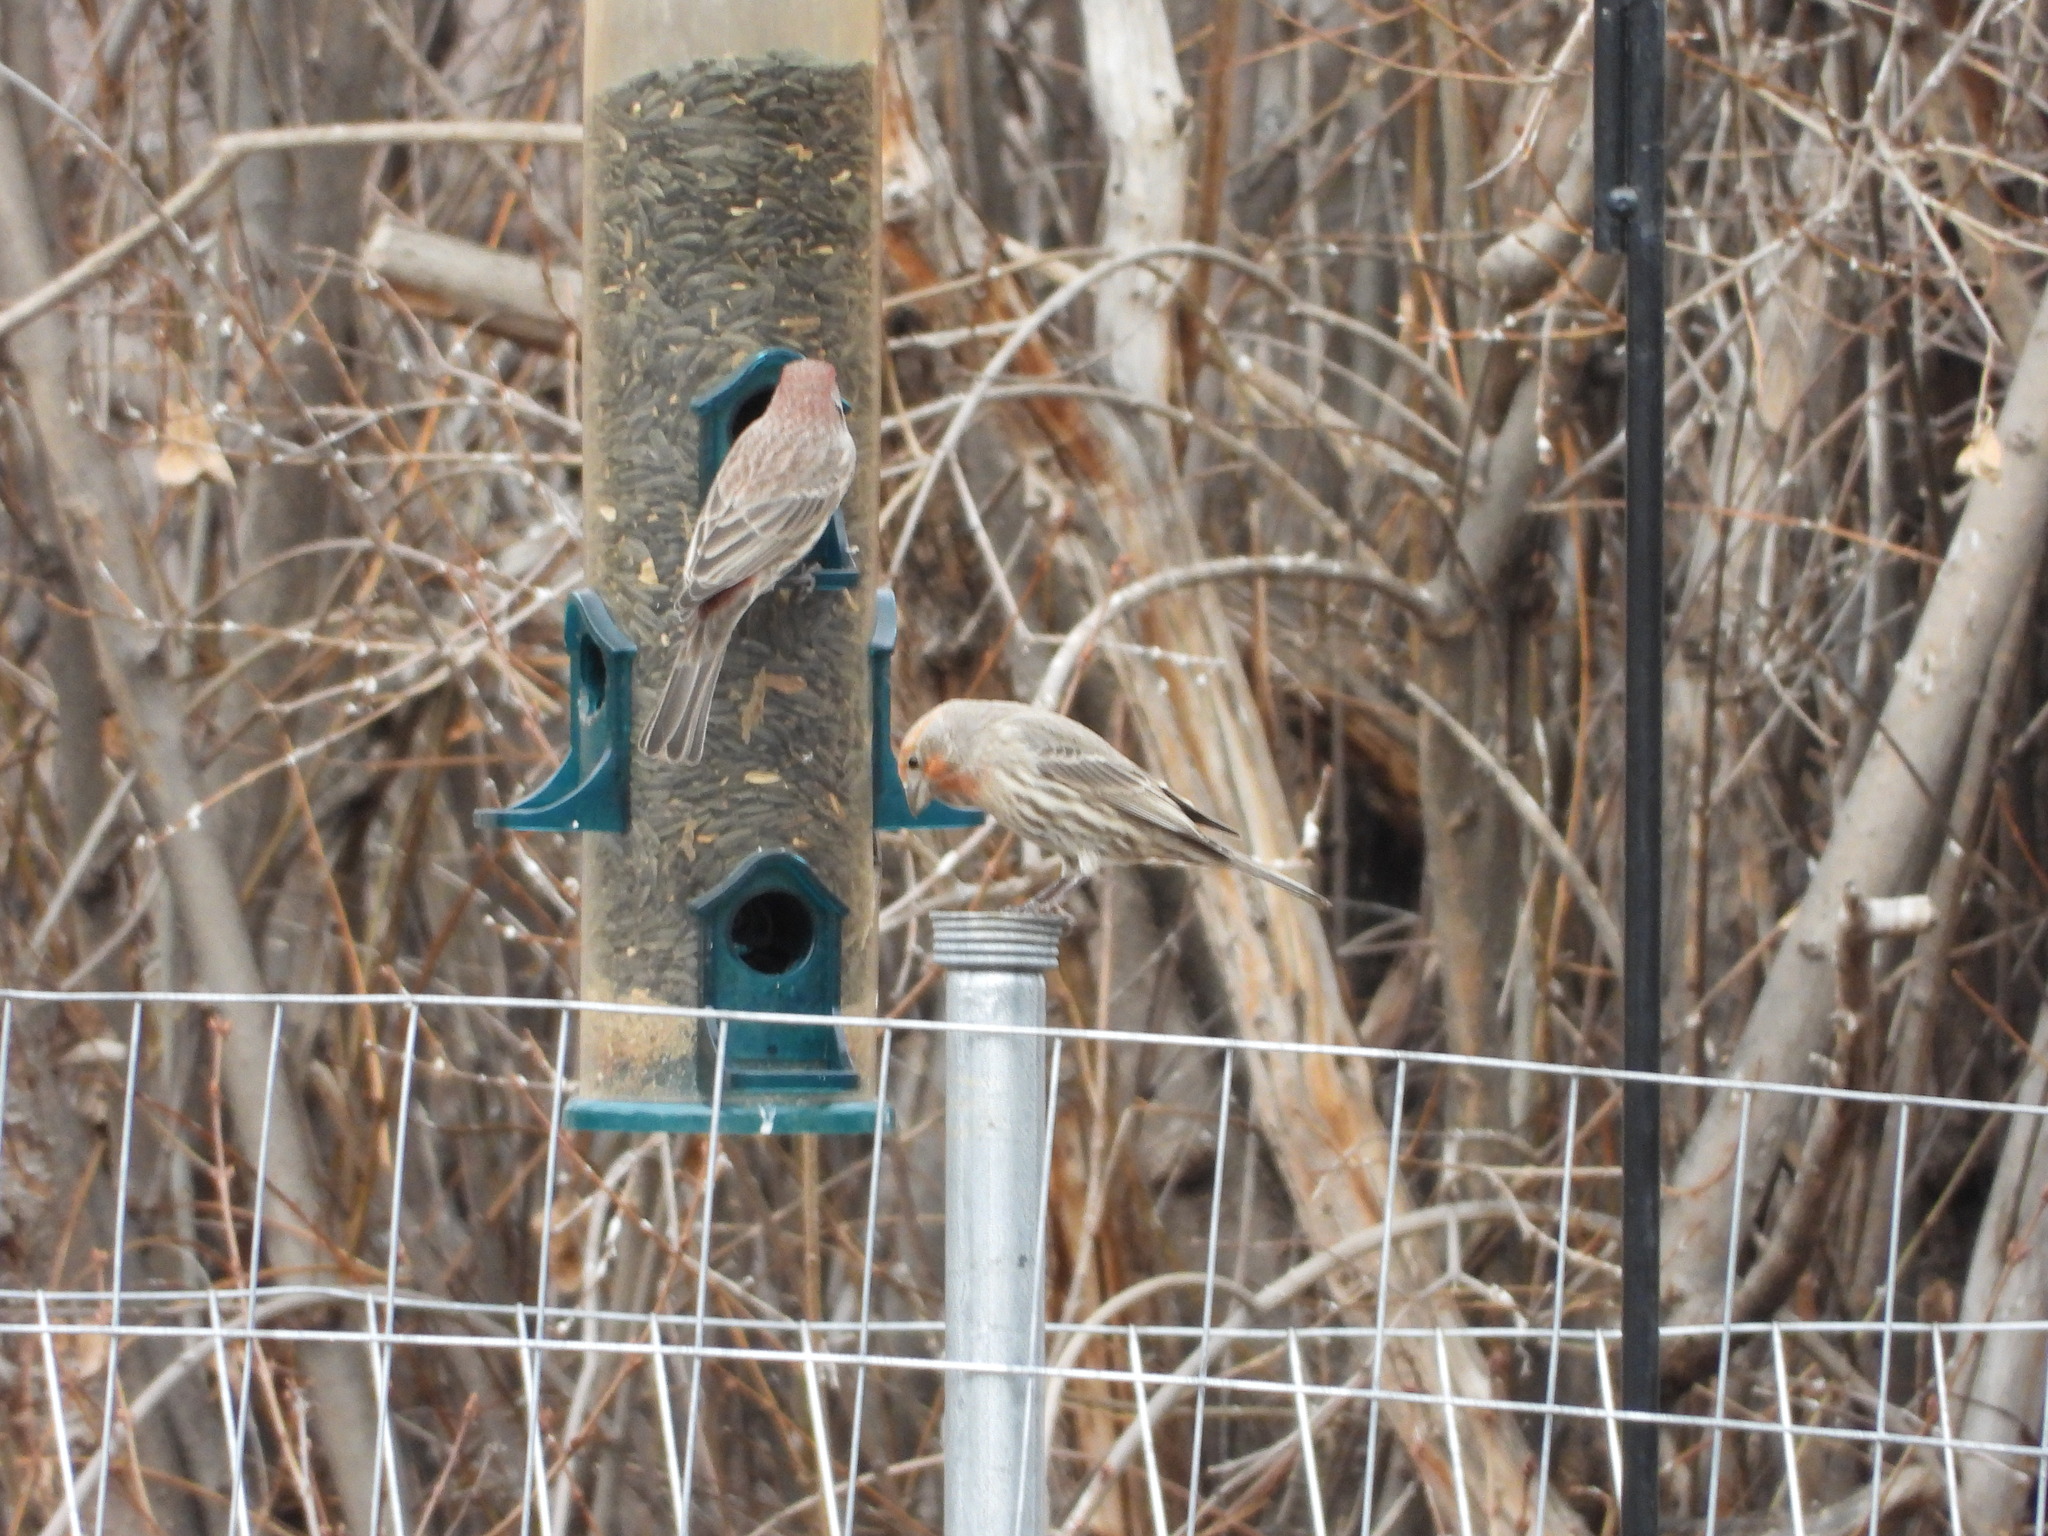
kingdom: Animalia
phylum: Chordata
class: Aves
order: Passeriformes
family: Fringillidae
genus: Haemorhous
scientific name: Haemorhous mexicanus
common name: House finch
